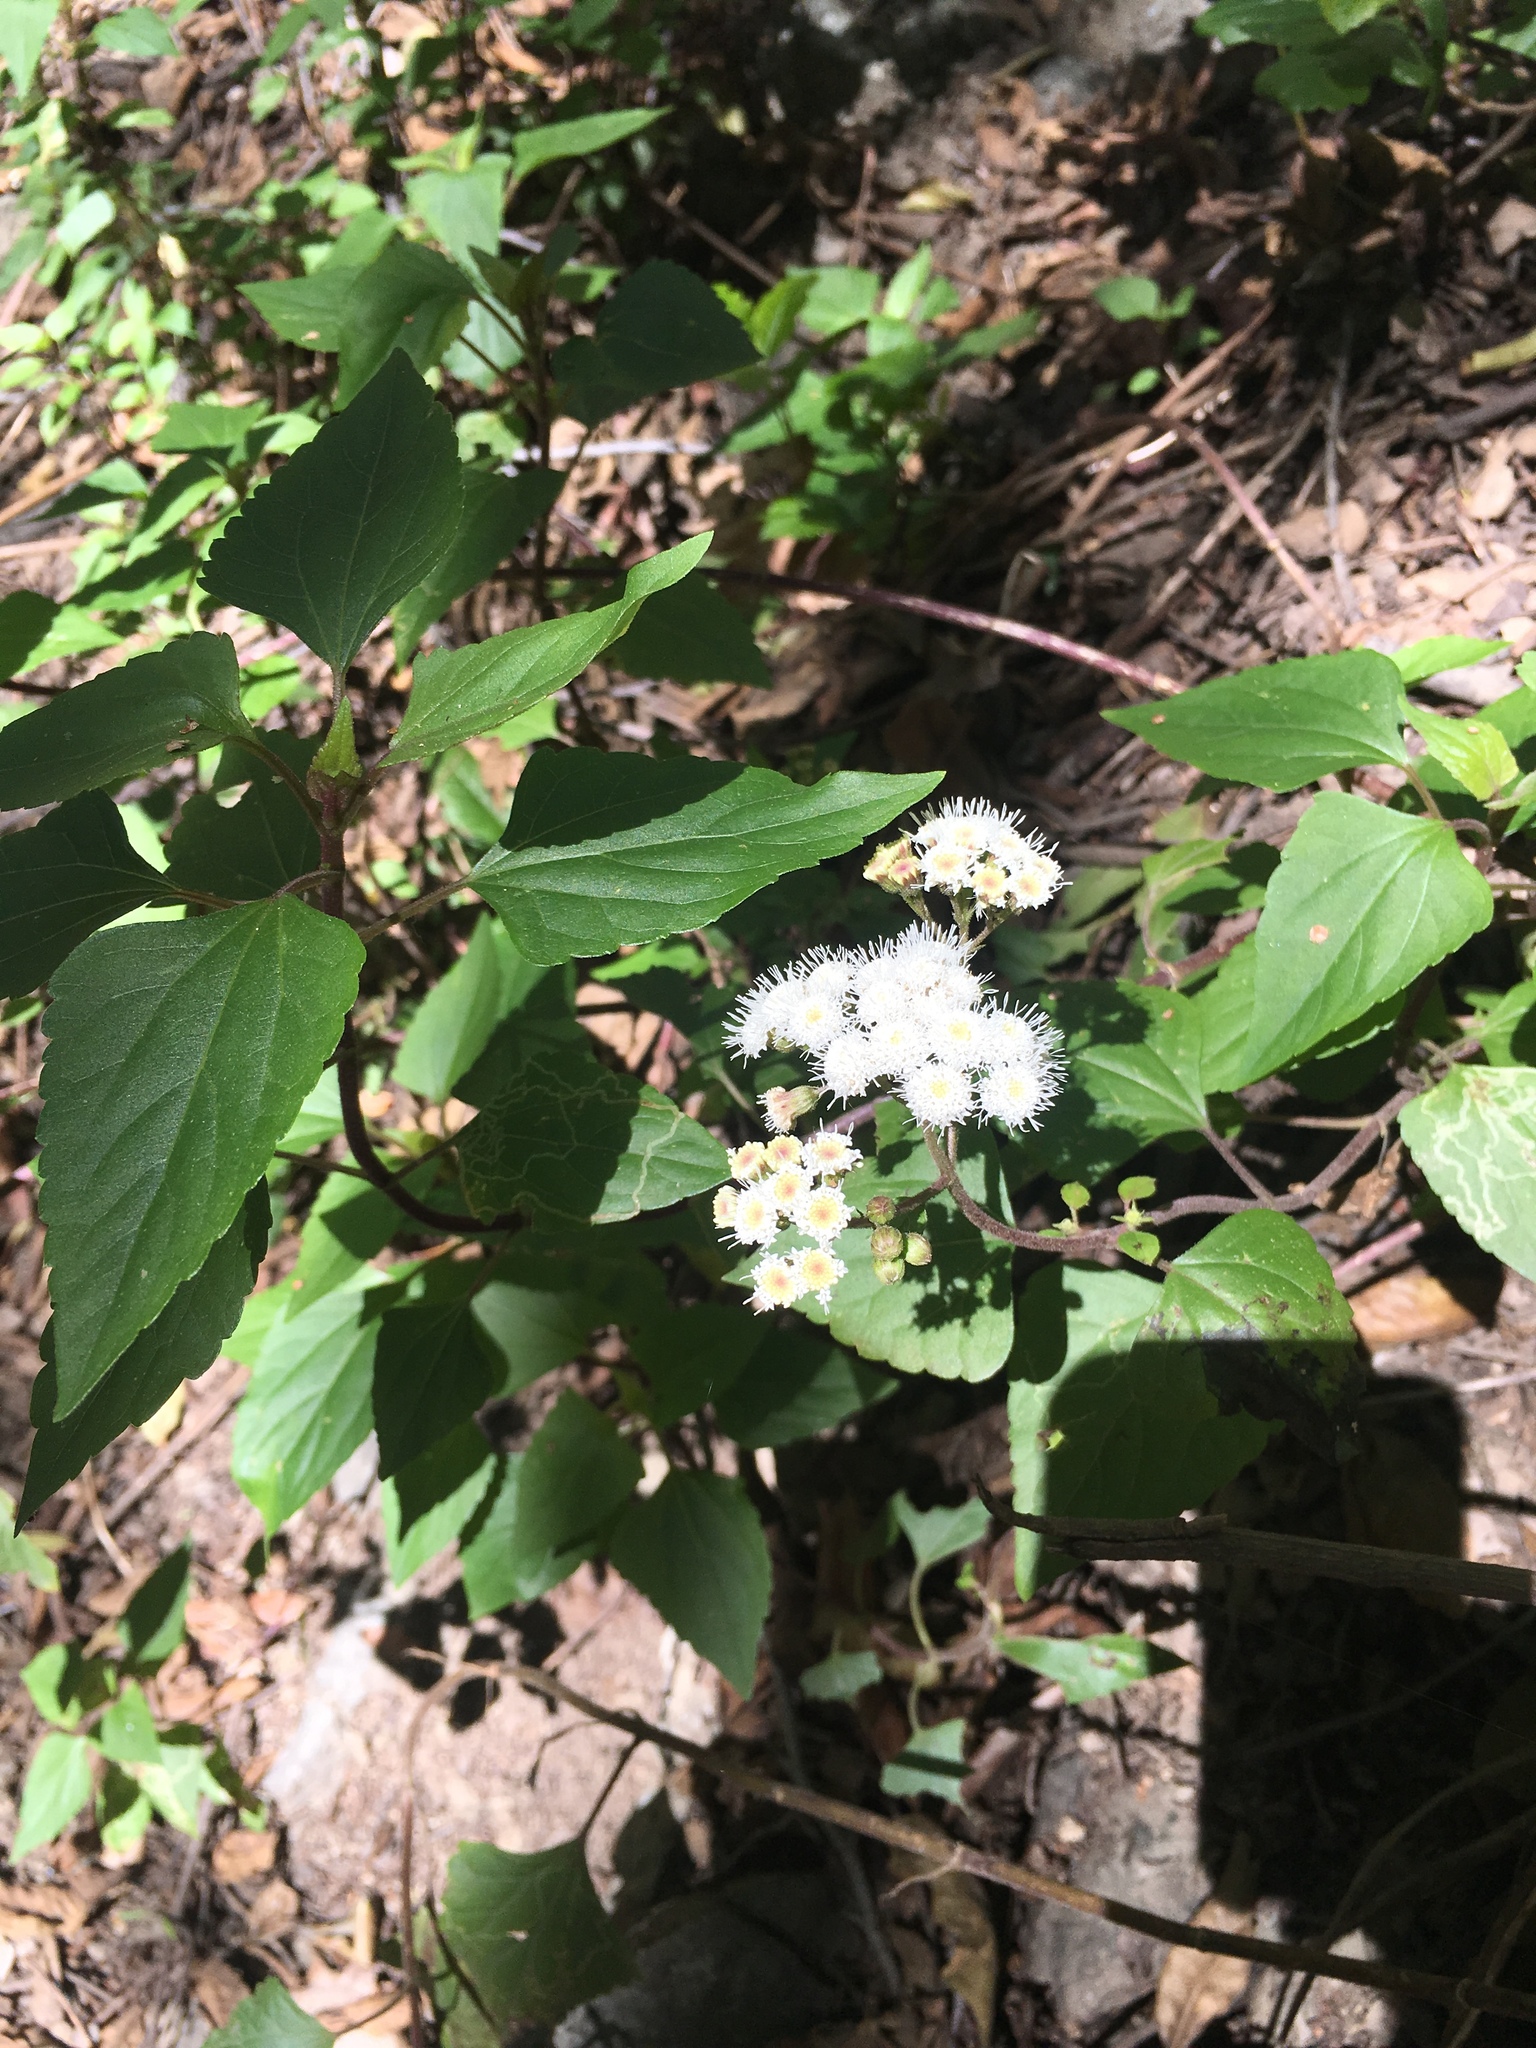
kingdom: Plantae
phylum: Tracheophyta
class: Magnoliopsida
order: Asterales
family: Asteraceae
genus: Ageratina
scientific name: Ageratina adenophora
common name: Sticky snakeroot
